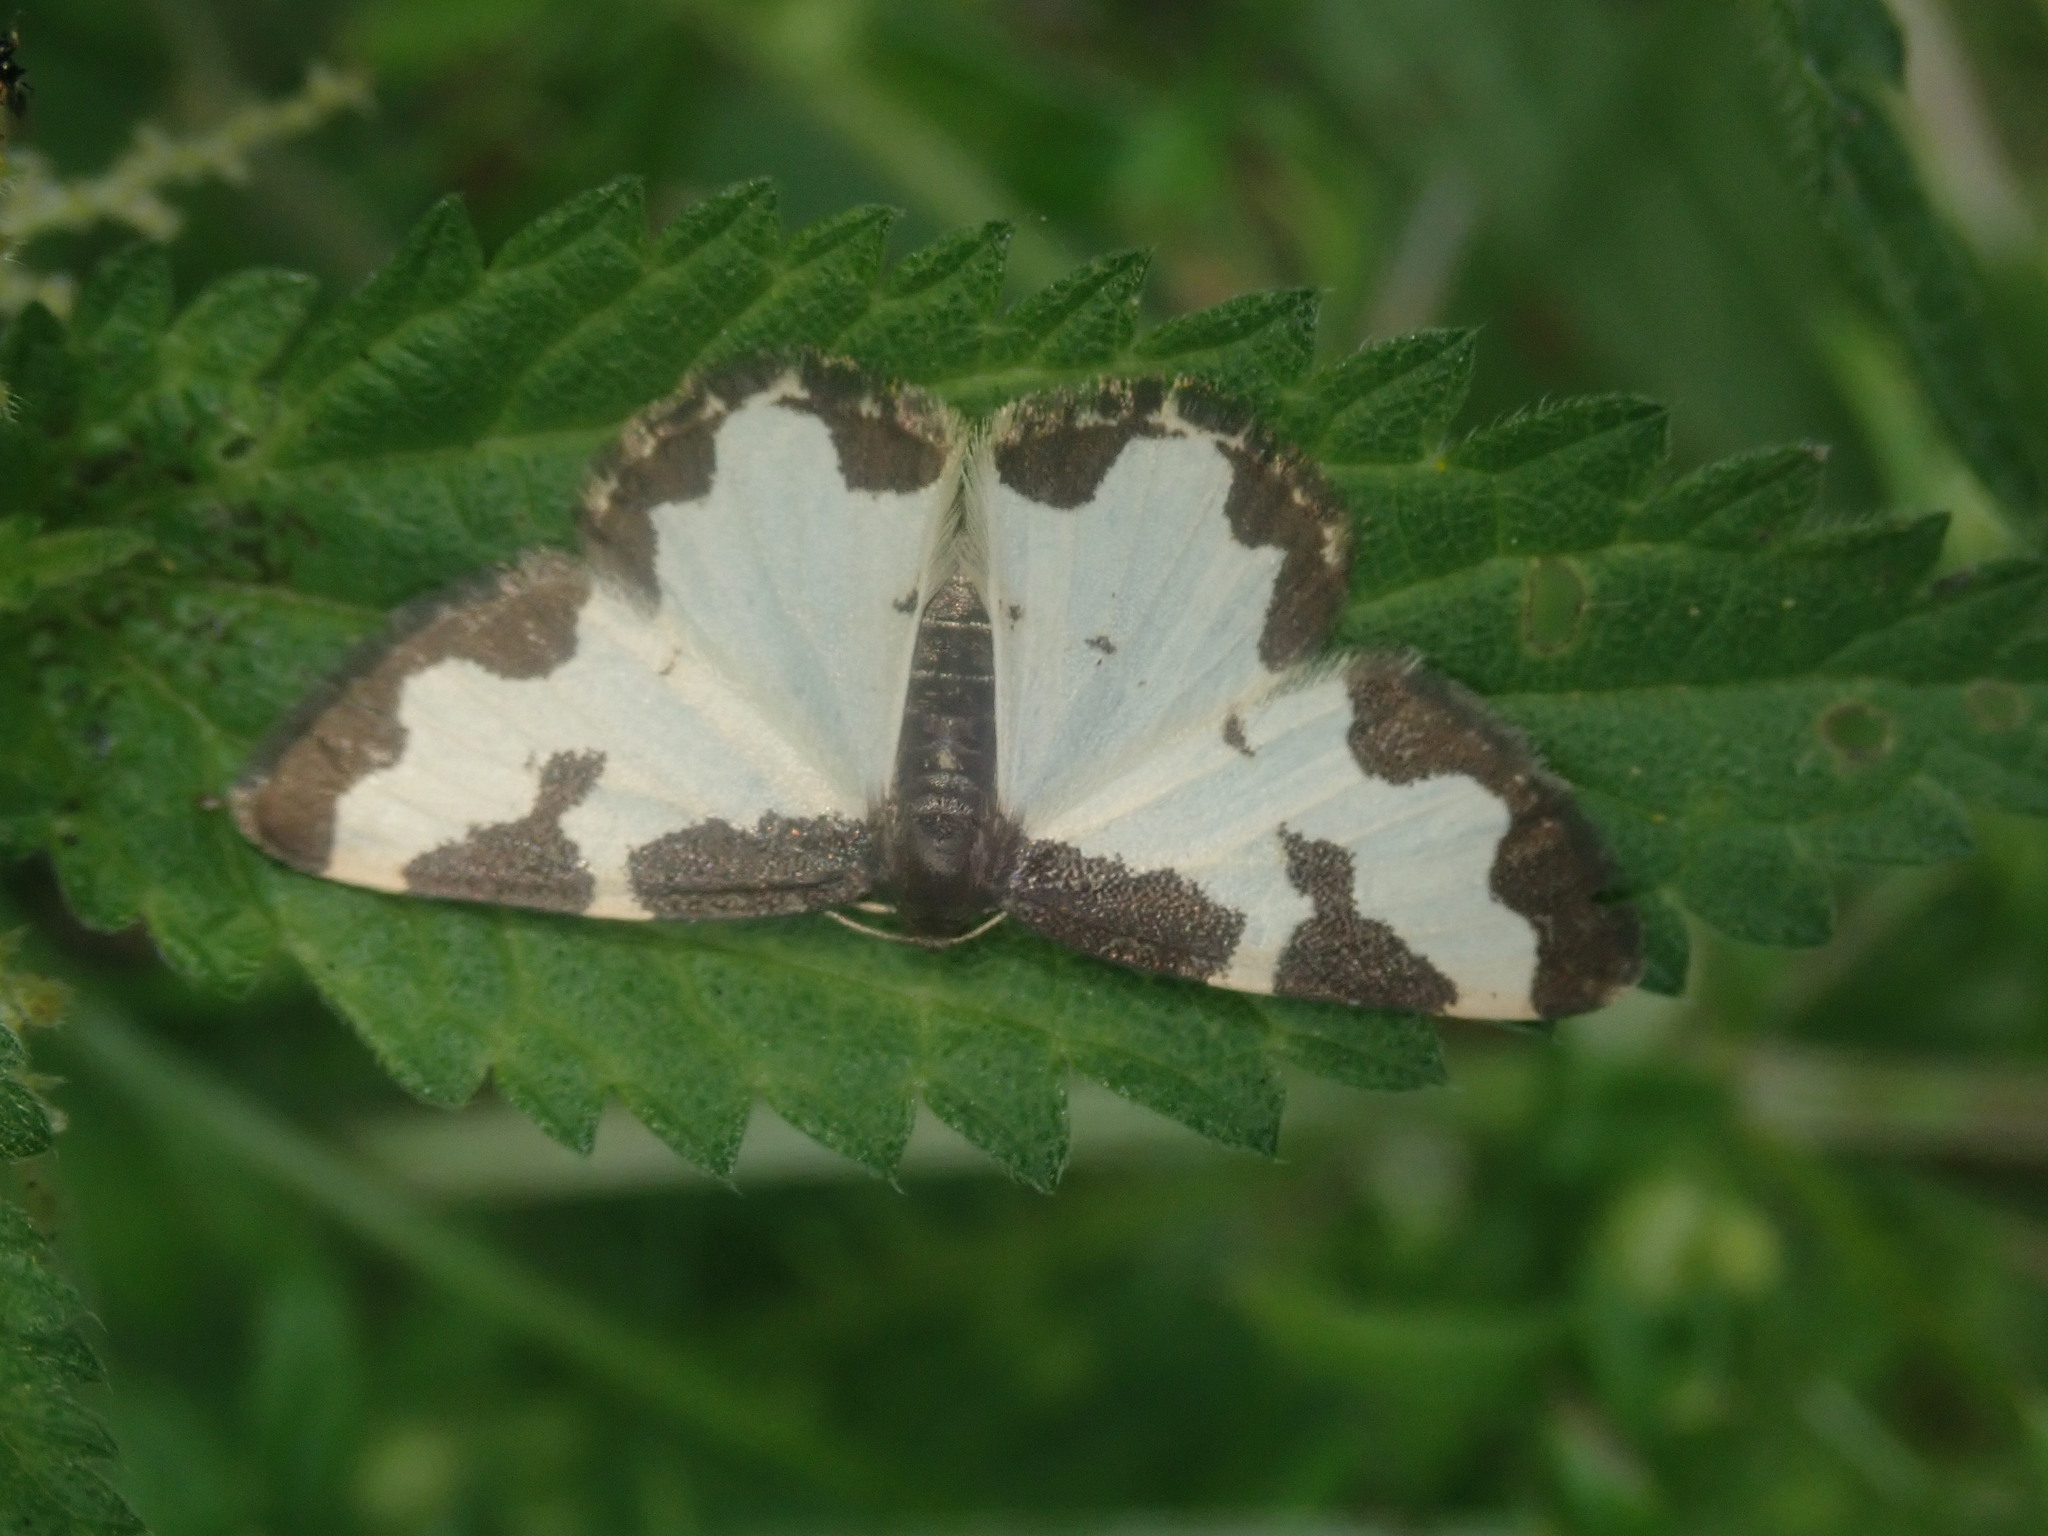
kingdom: Animalia
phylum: Arthropoda
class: Insecta
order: Lepidoptera
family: Geometridae
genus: Lomaspilis
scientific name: Lomaspilis marginata
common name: Clouded border
